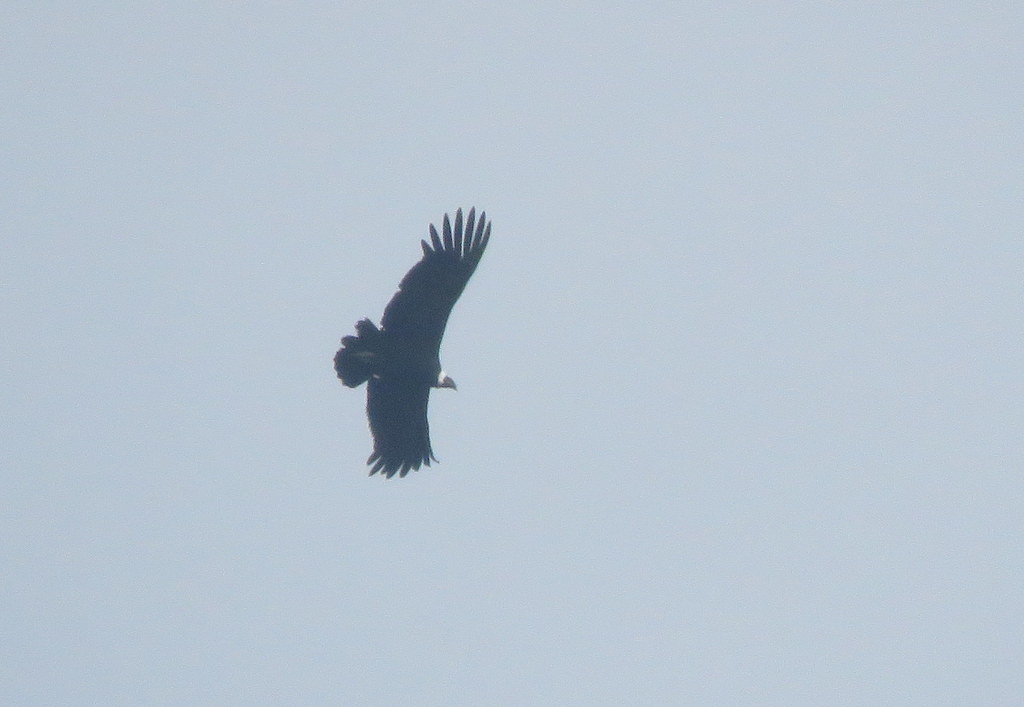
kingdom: Animalia
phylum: Chordata
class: Aves
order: Accipitriformes
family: Cathartidae
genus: Vultur
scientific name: Vultur gryphus
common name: Andean condor
